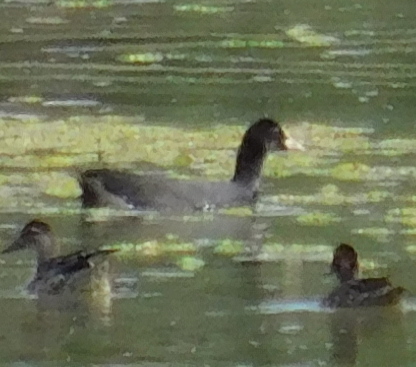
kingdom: Animalia
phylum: Chordata
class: Aves
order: Gruiformes
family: Rallidae
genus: Fulica
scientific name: Fulica atra
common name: Eurasian coot
